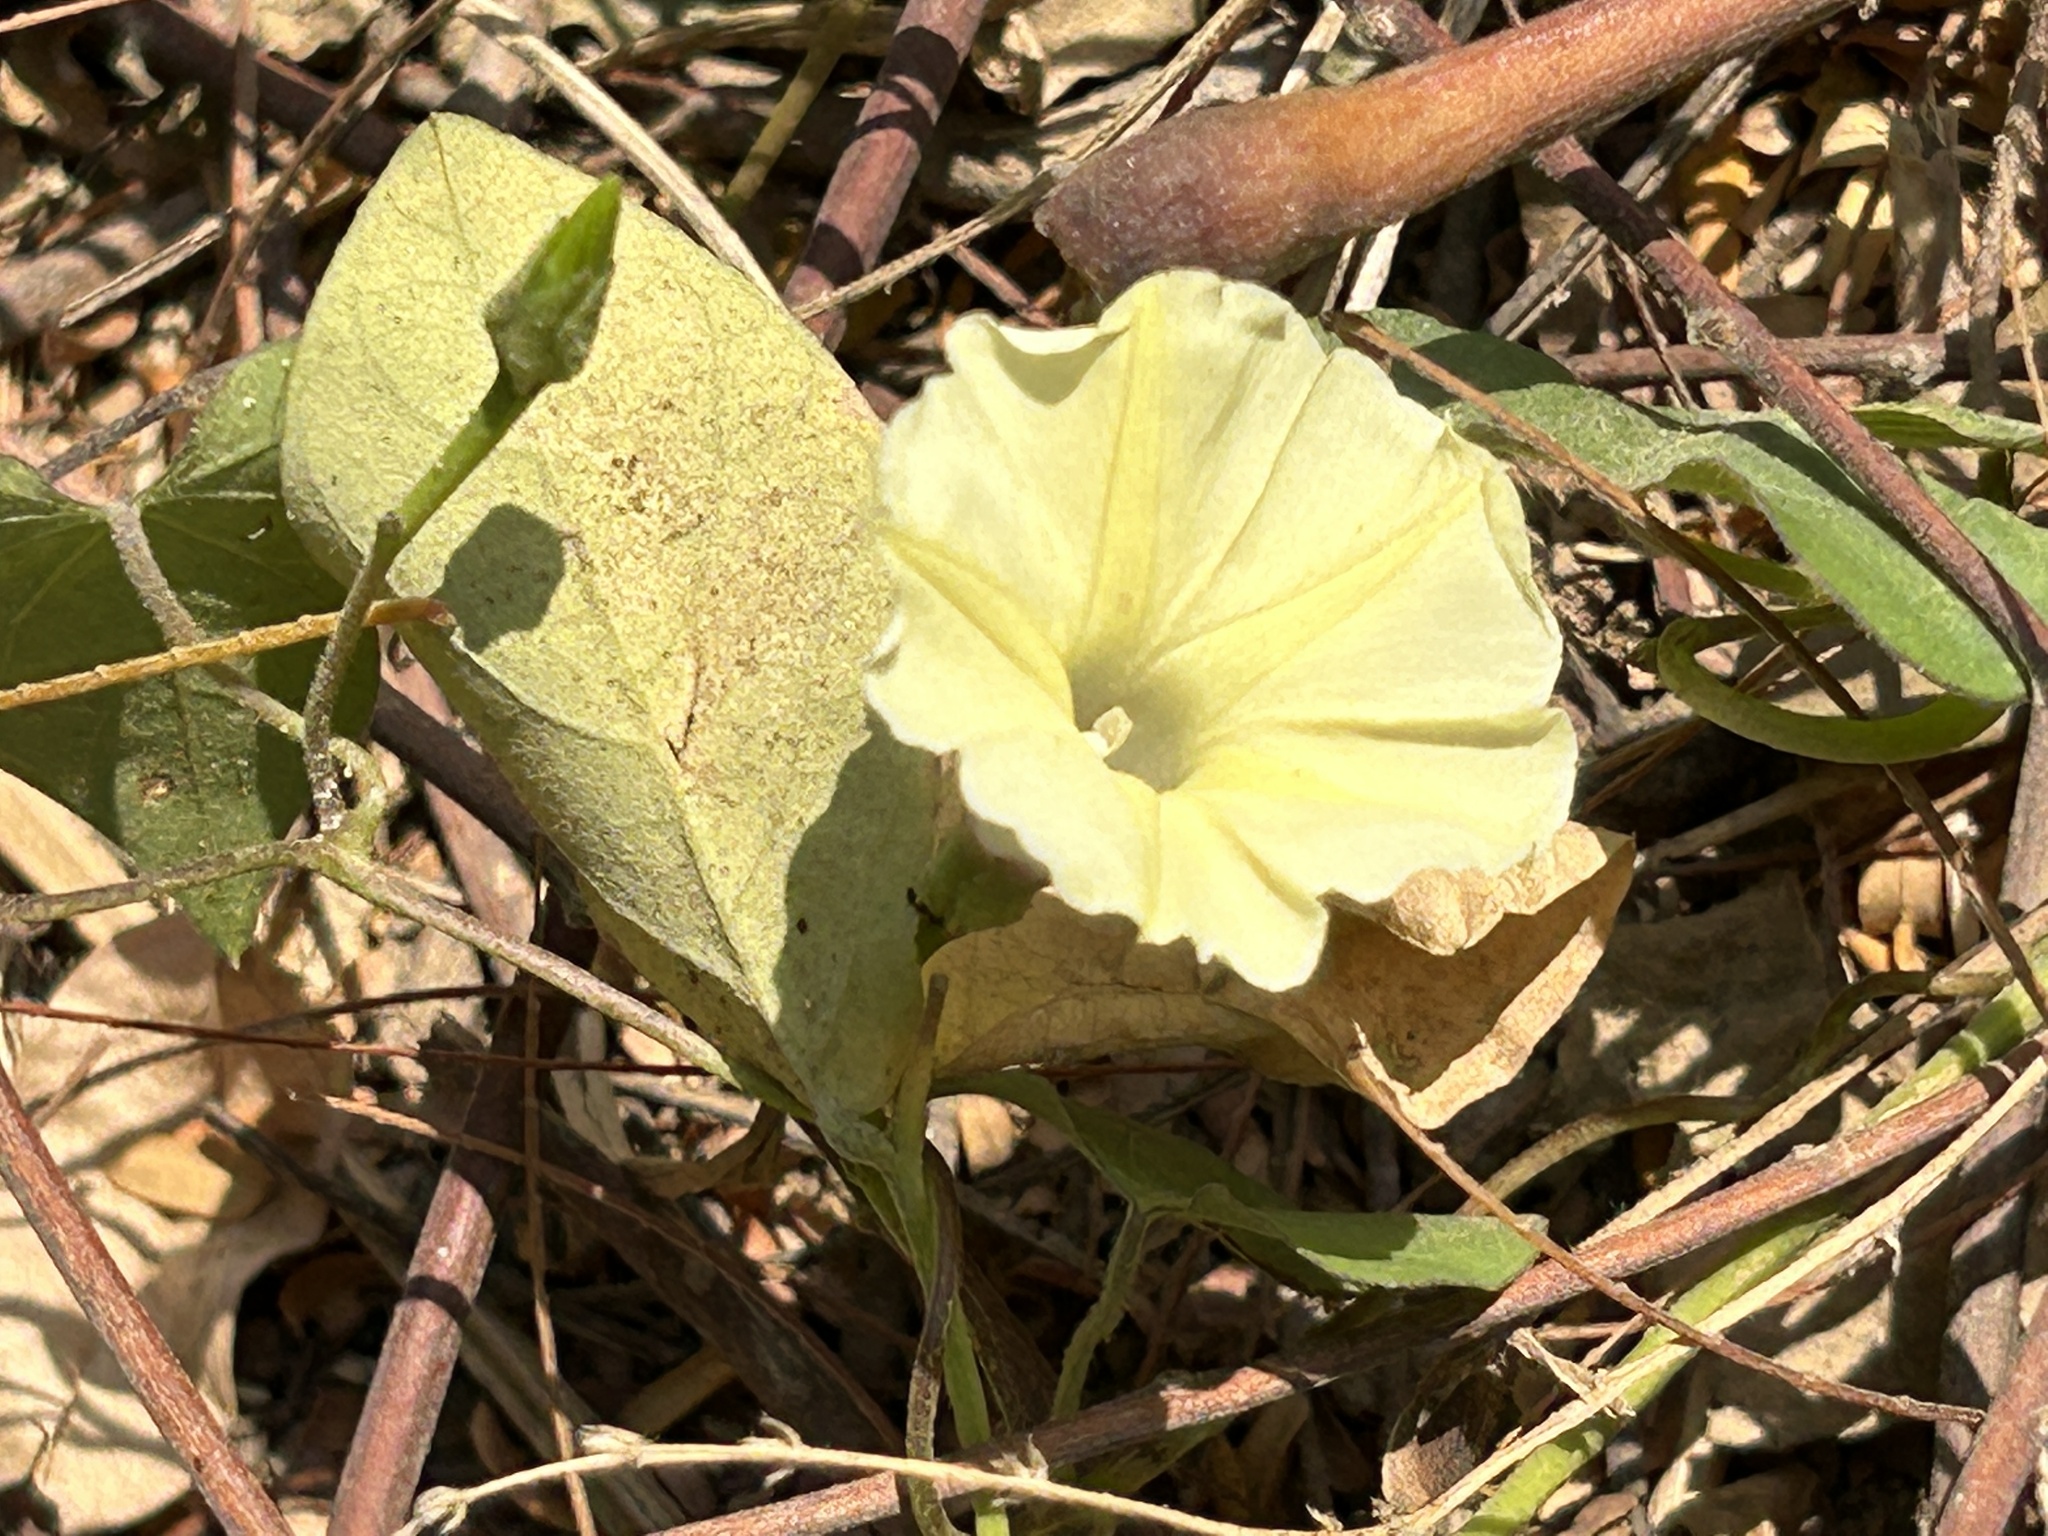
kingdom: Plantae
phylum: Tracheophyta
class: Magnoliopsida
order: Solanales
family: Convolvulaceae
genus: Ipomoea
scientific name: Ipomoea obscura
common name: Obscure morning-glory
